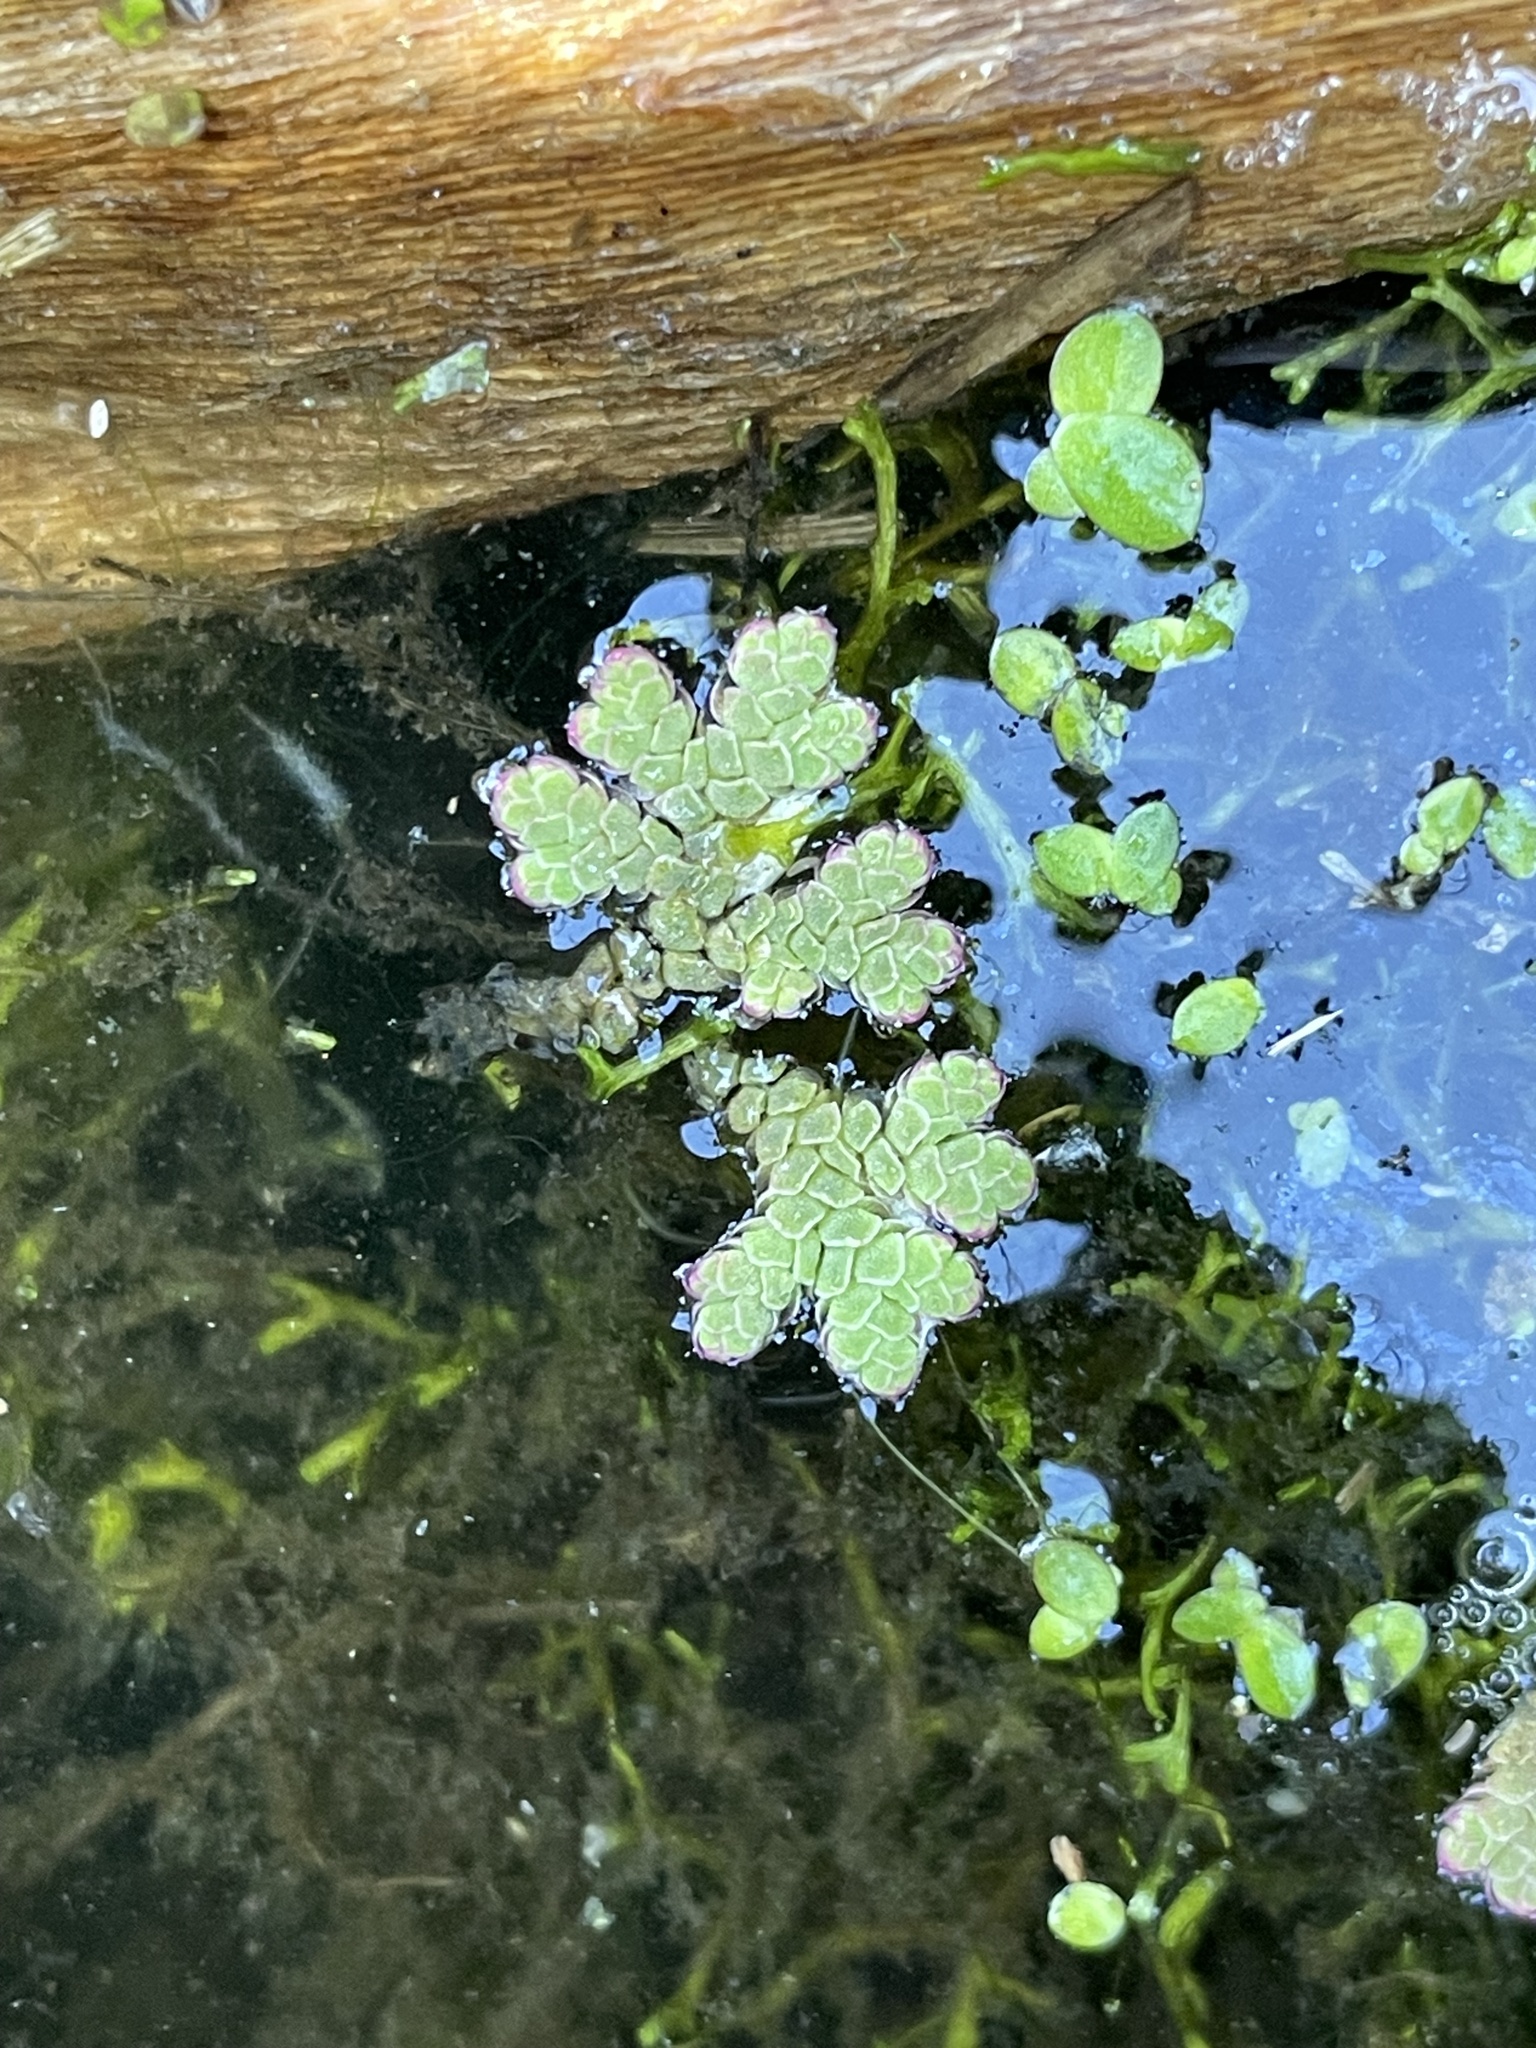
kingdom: Plantae
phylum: Tracheophyta
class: Polypodiopsida
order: Salviniales
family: Salviniaceae
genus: Azolla
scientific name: Azolla rubra
